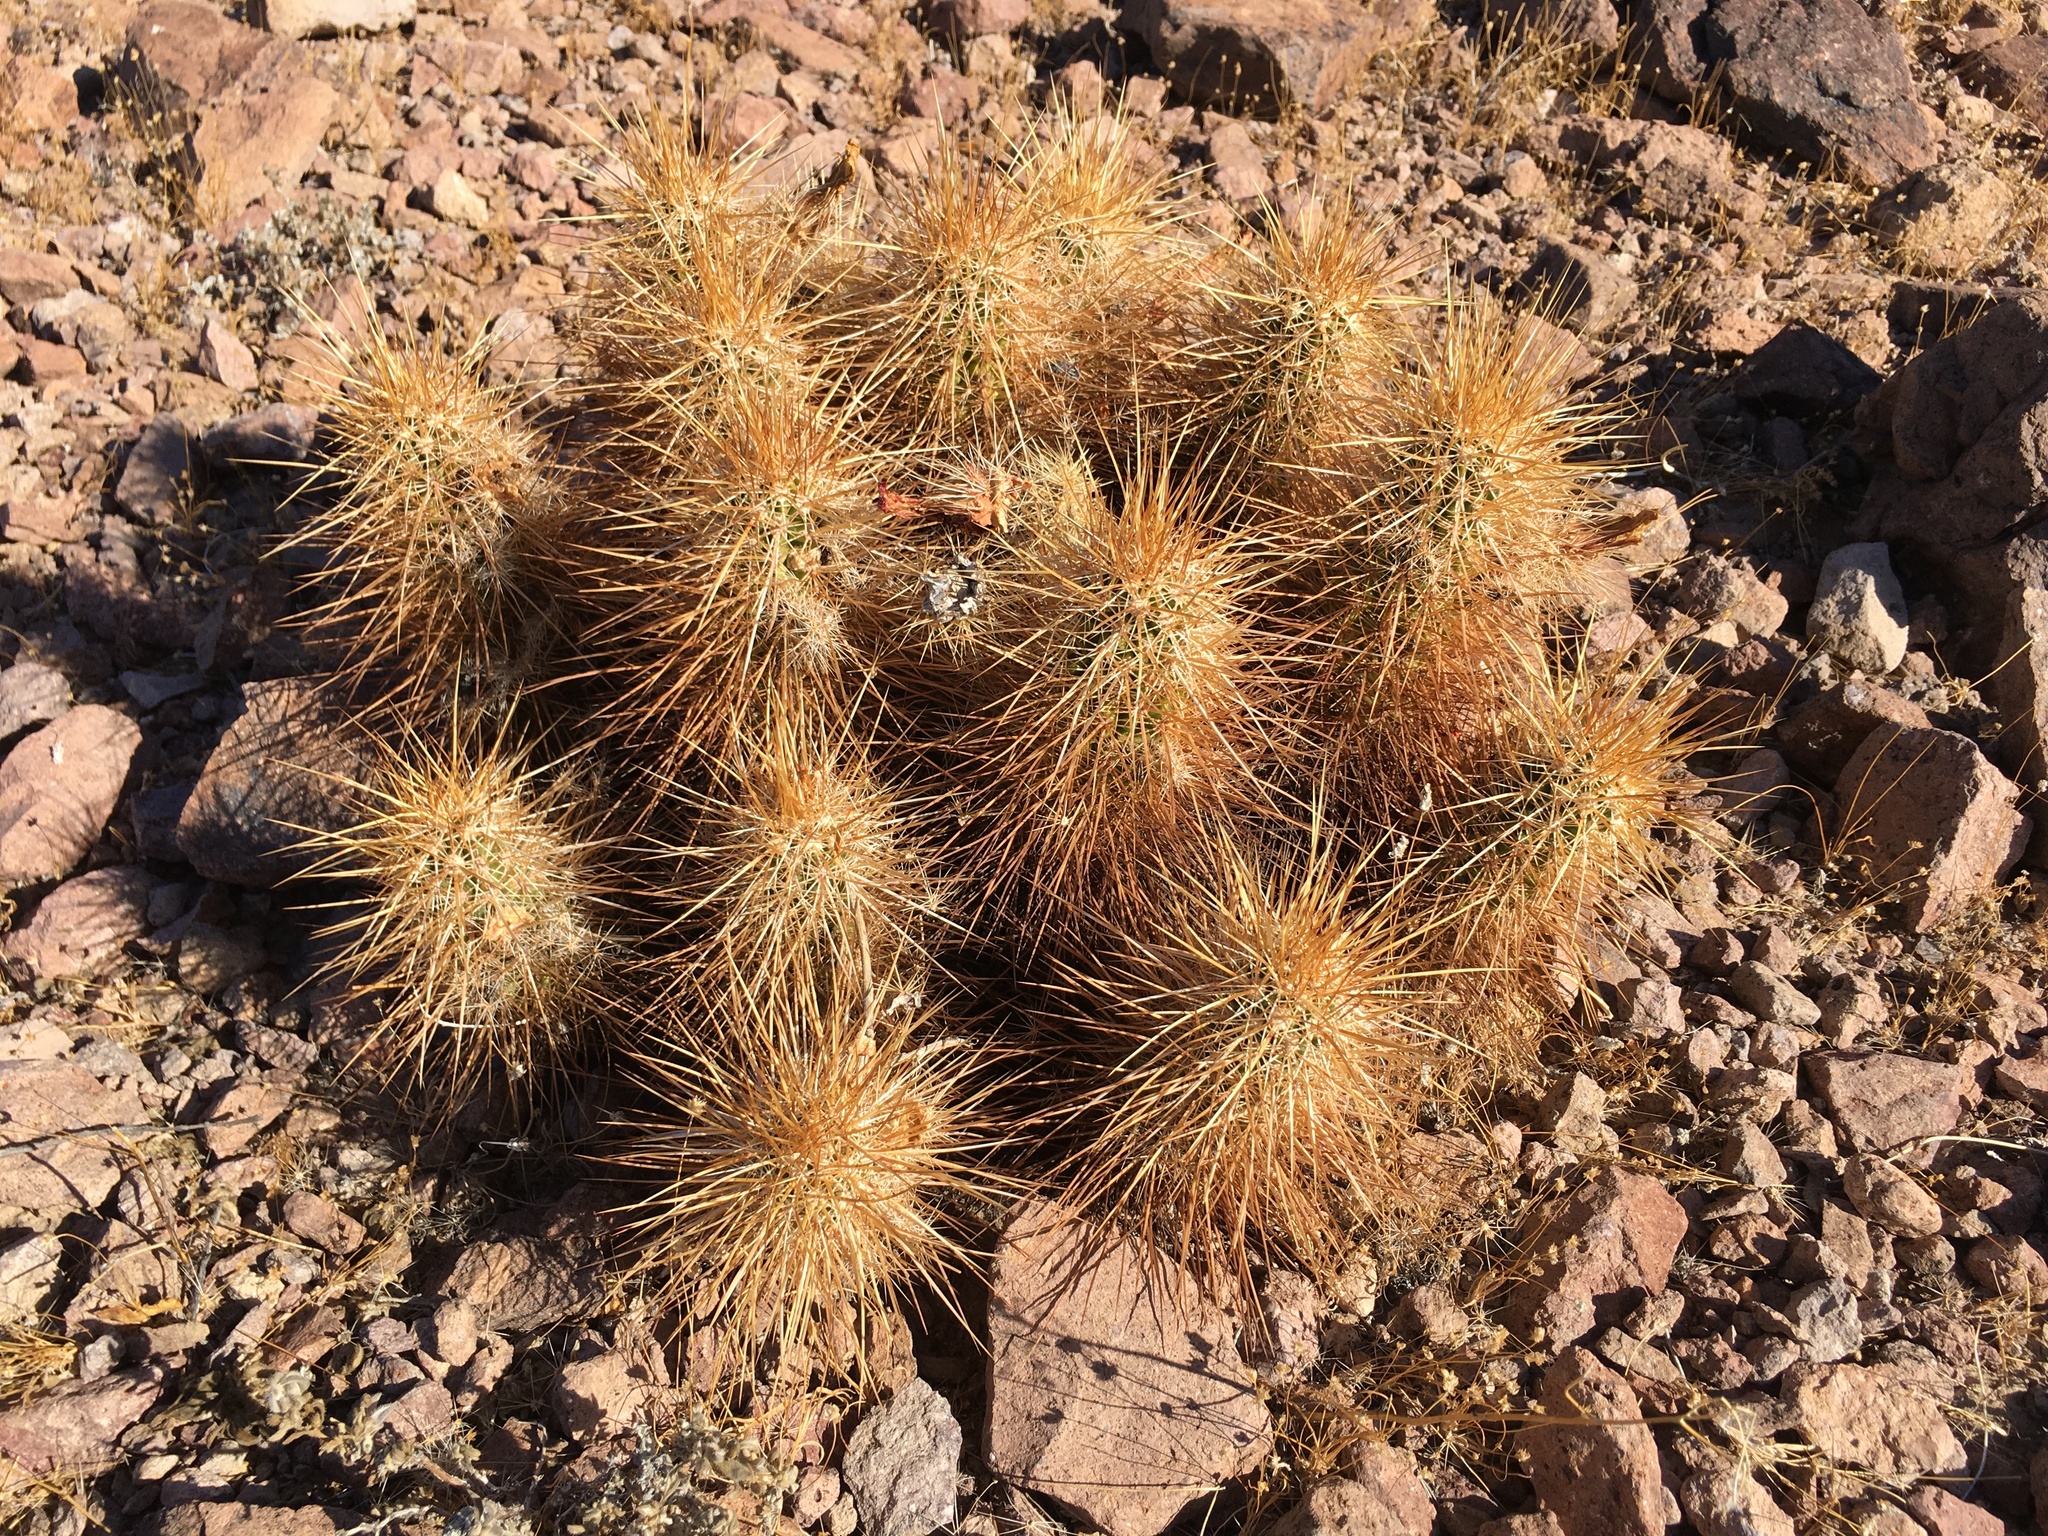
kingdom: Plantae
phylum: Tracheophyta
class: Magnoliopsida
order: Caryophyllales
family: Cactaceae
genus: Echinocereus
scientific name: Echinocereus engelmannii
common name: Engelmann's hedgehog cactus
